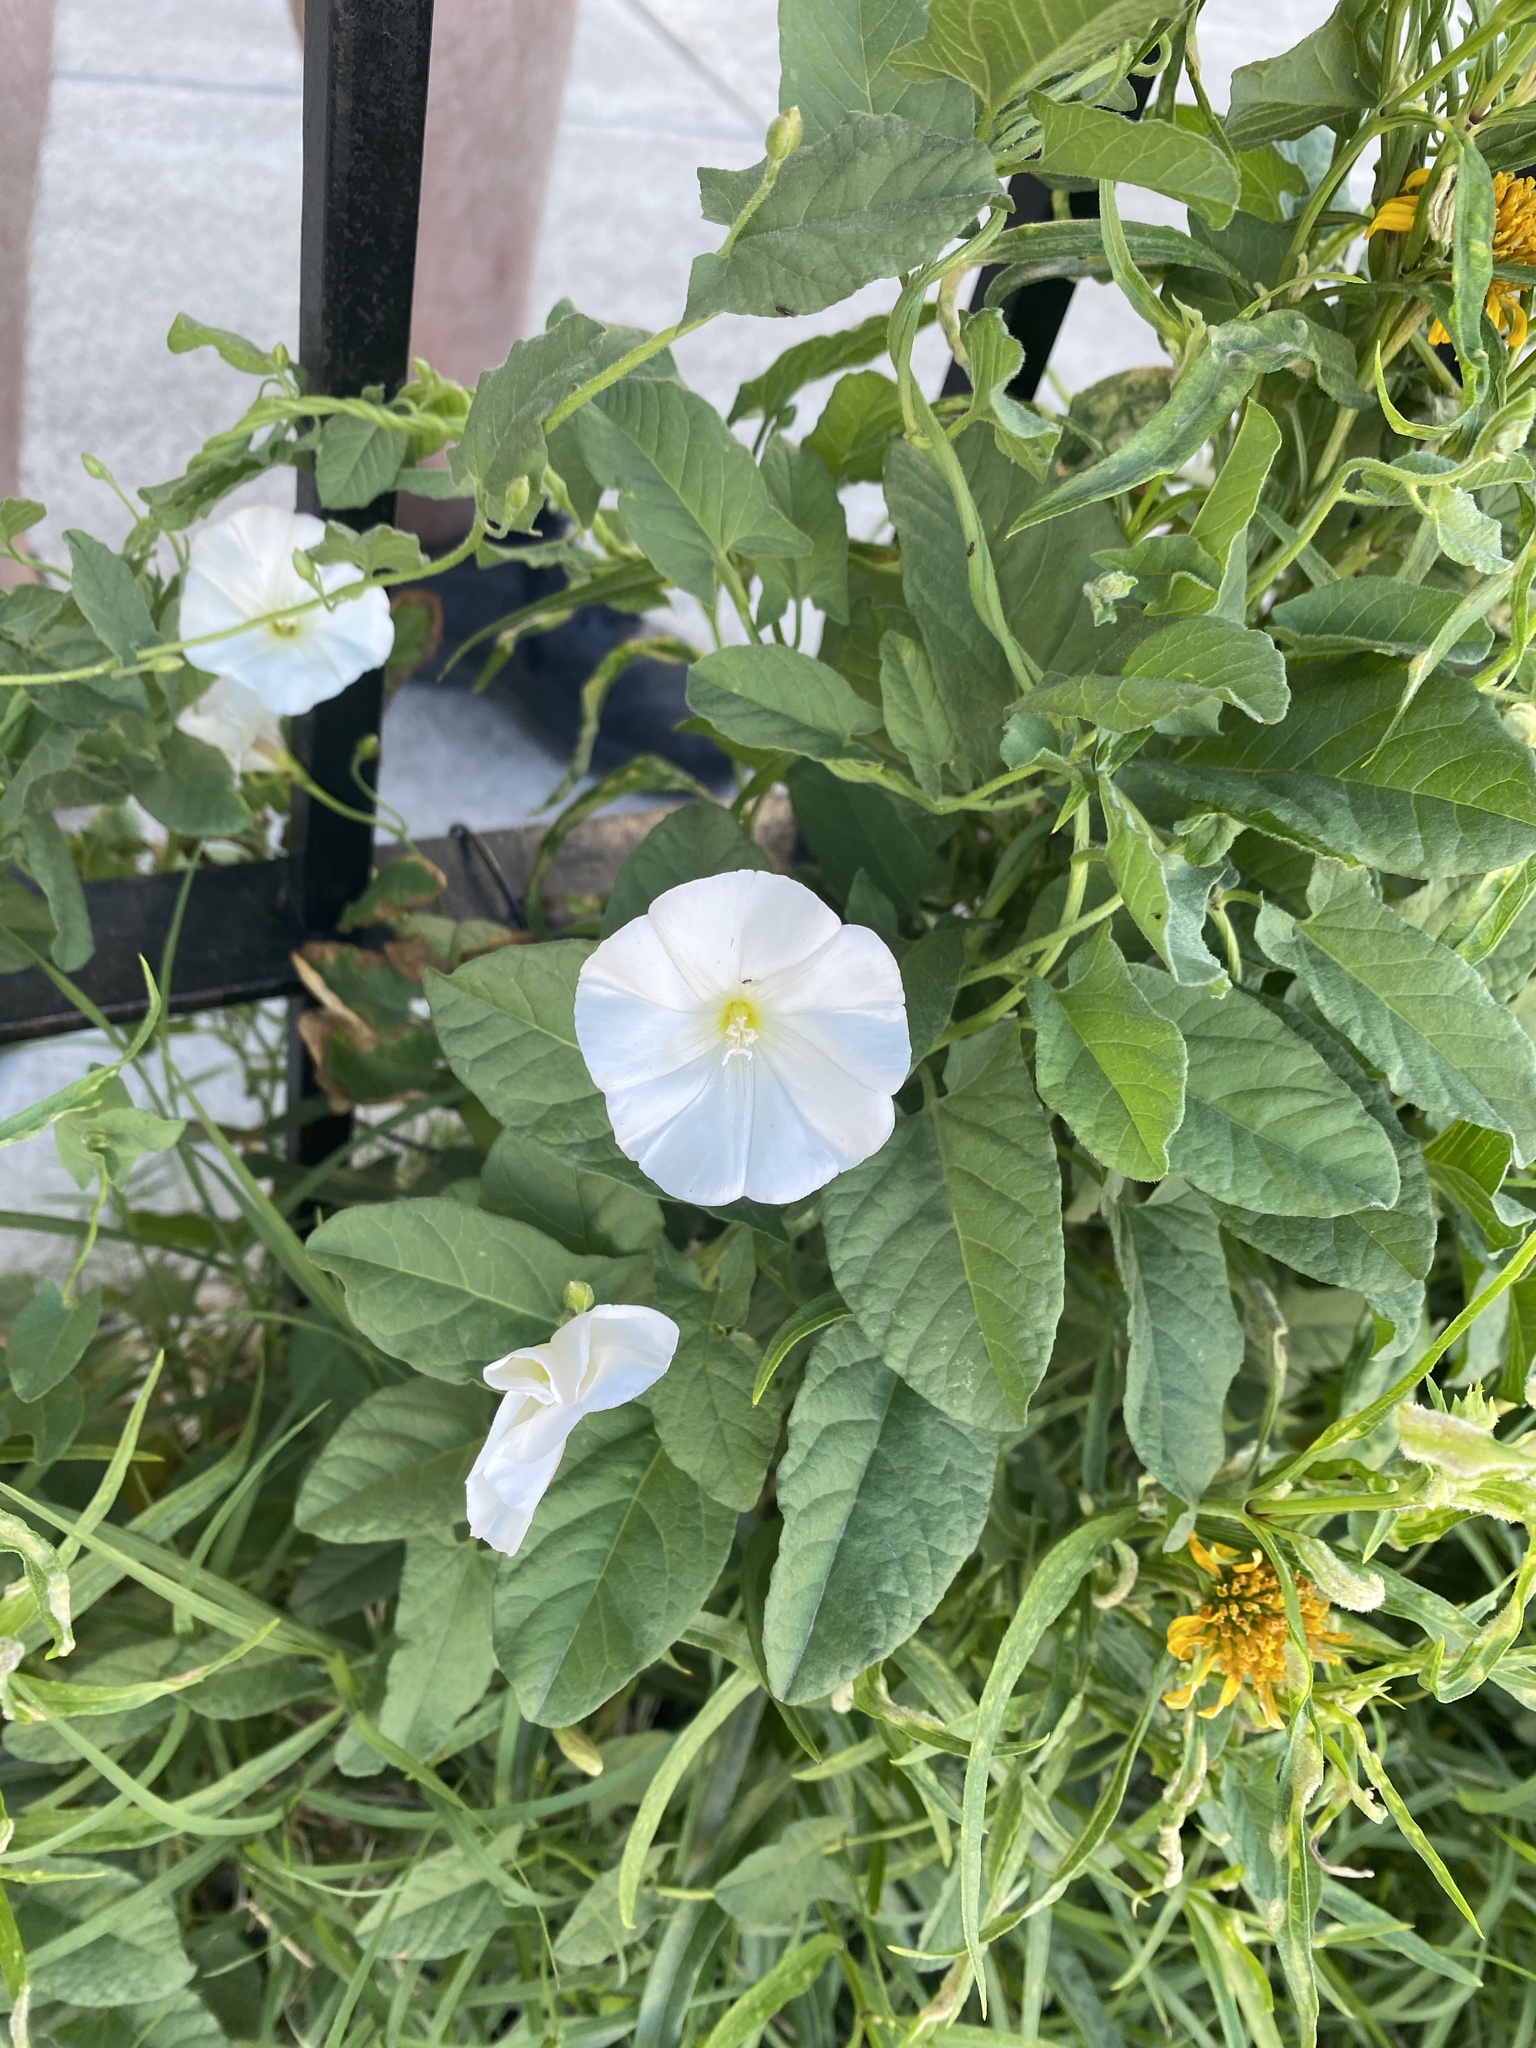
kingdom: Plantae
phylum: Tracheophyta
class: Magnoliopsida
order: Solanales
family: Convolvulaceae
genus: Convolvulus
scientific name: Convolvulus arvensis
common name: Field bindweed
